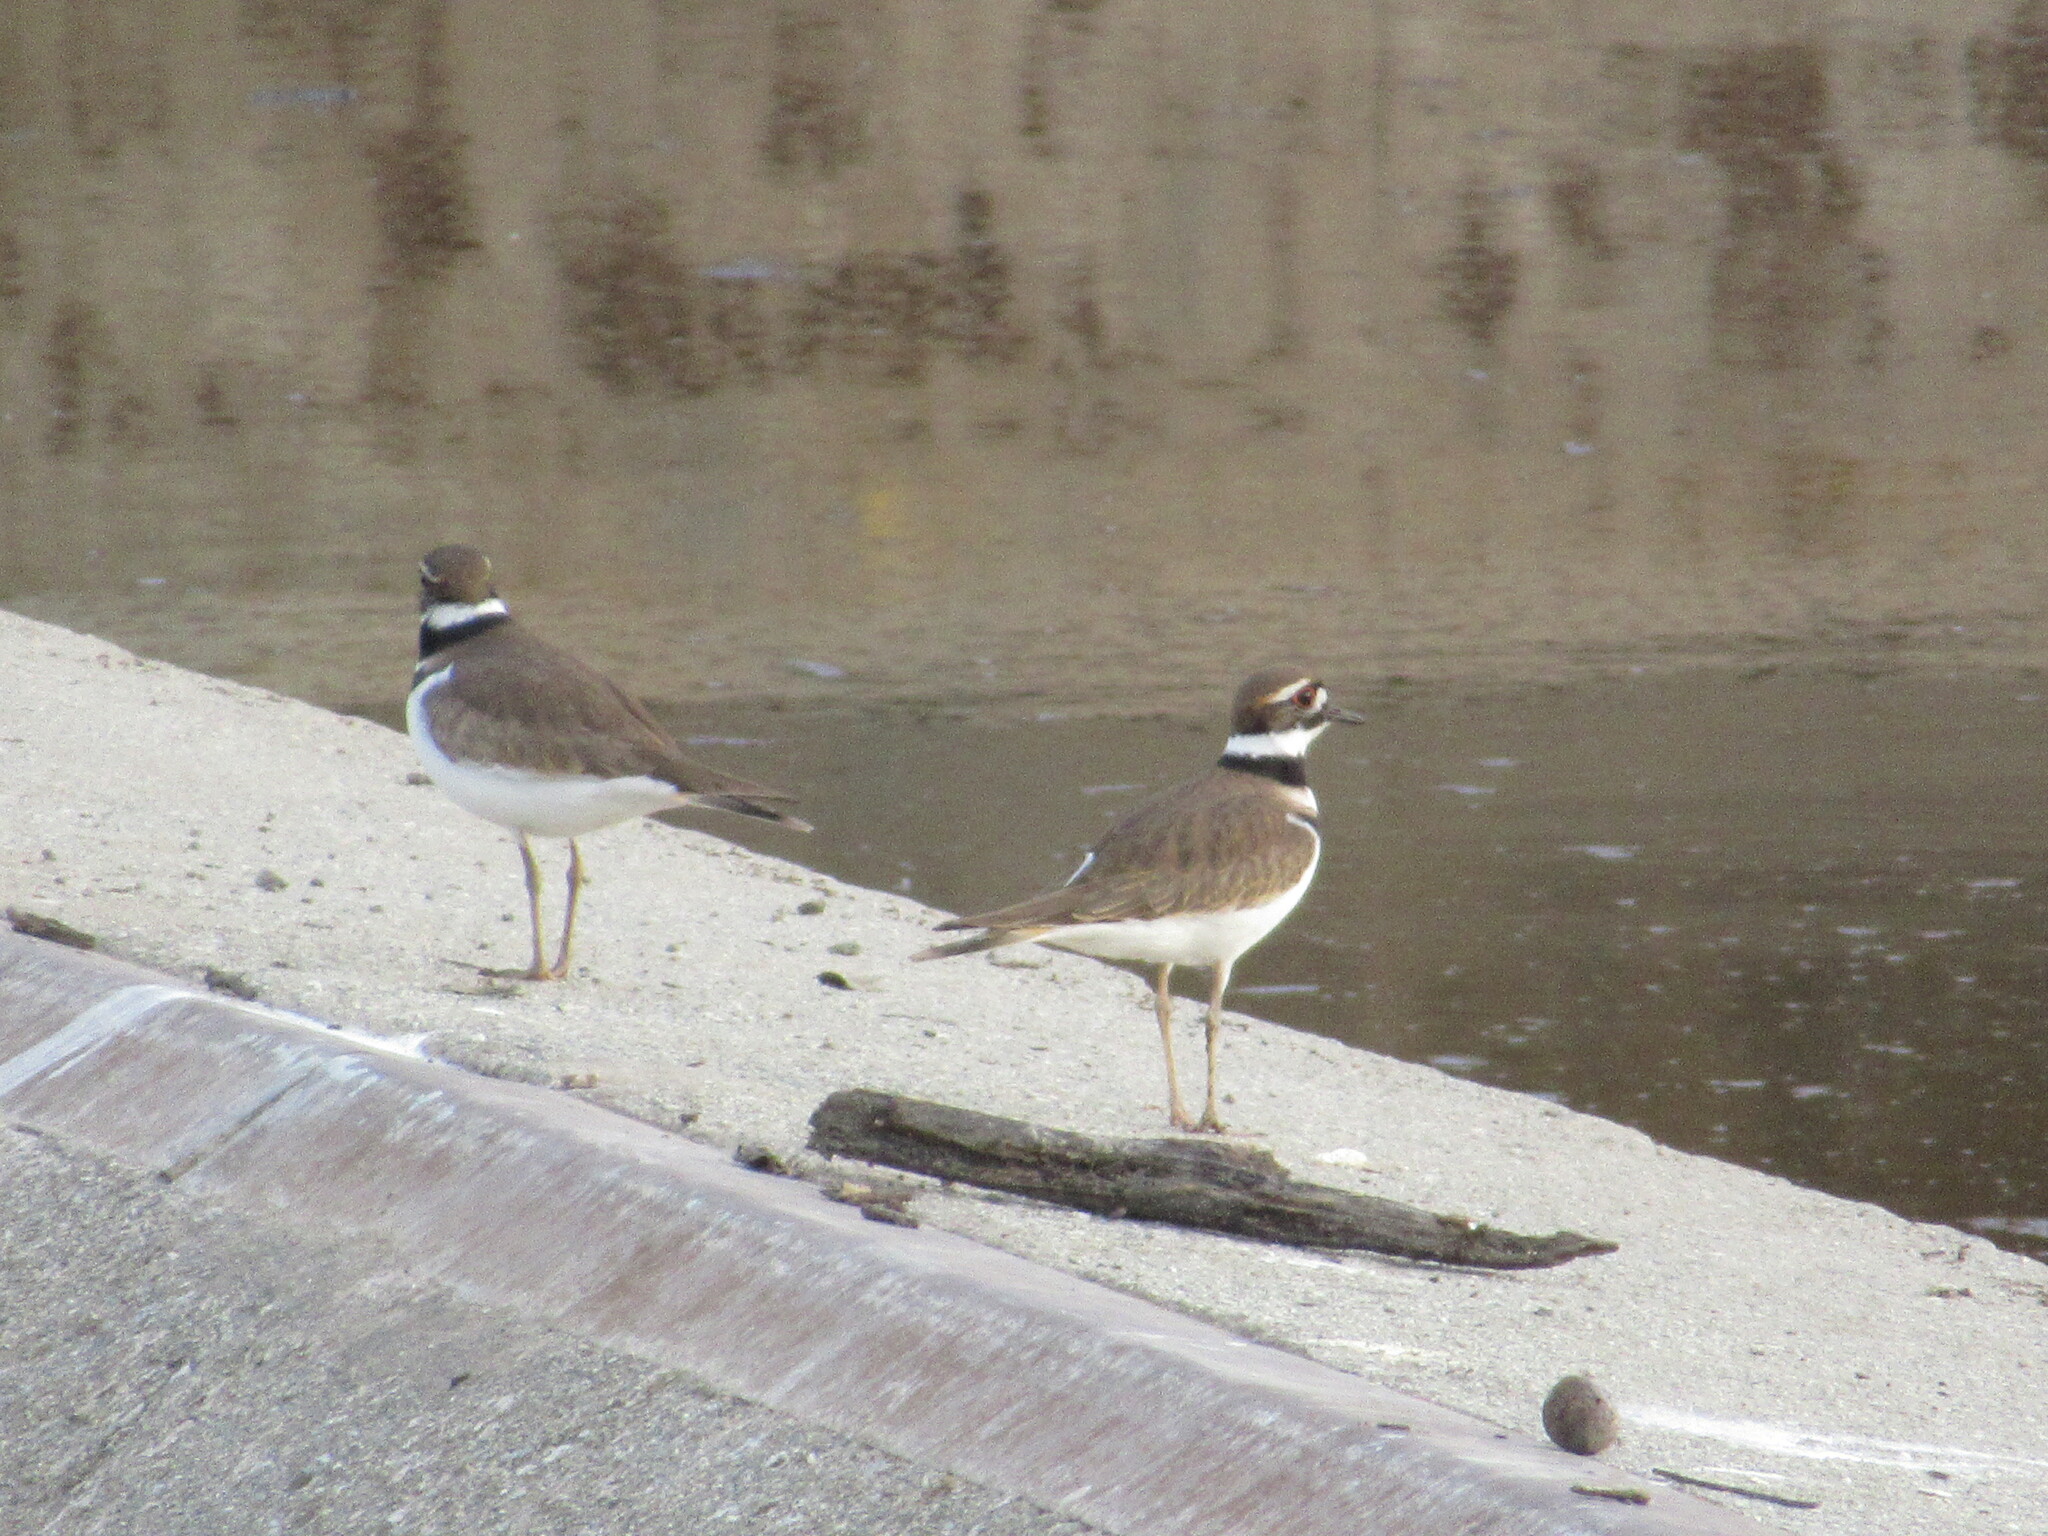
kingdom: Animalia
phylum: Chordata
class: Aves
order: Charadriiformes
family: Charadriidae
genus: Charadrius
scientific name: Charadrius vociferus
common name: Killdeer
